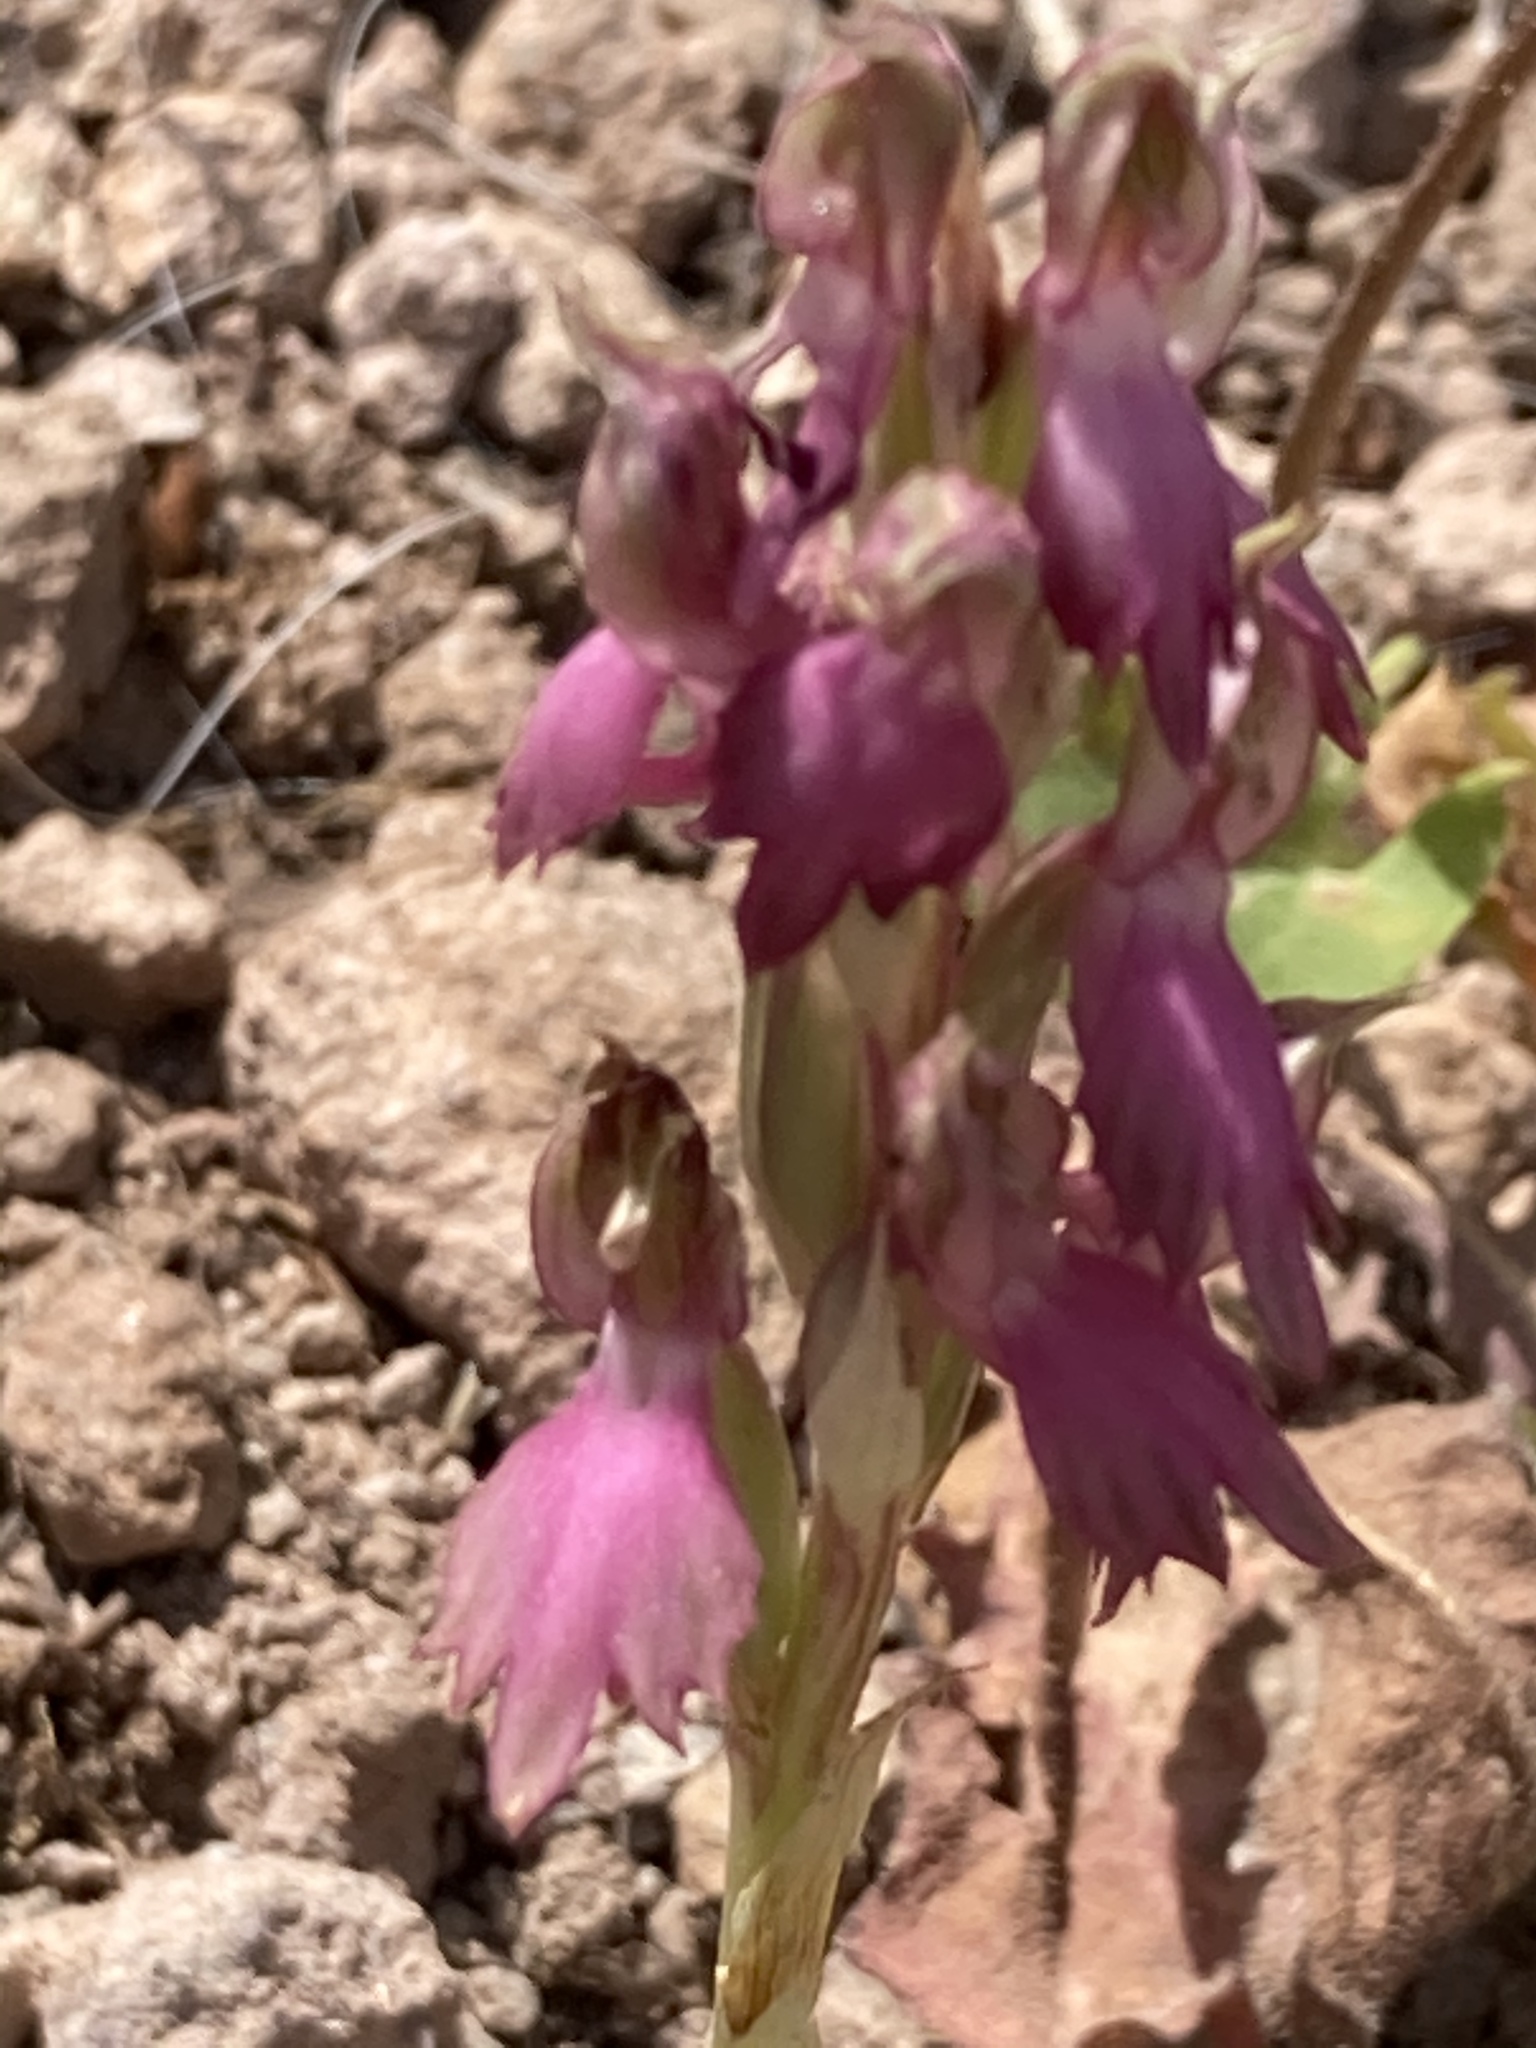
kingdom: Plantae
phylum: Tracheophyta
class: Liliopsida
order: Asparagales
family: Orchidaceae
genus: Anacamptis
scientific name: Anacamptis sancta
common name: Holy orchid
